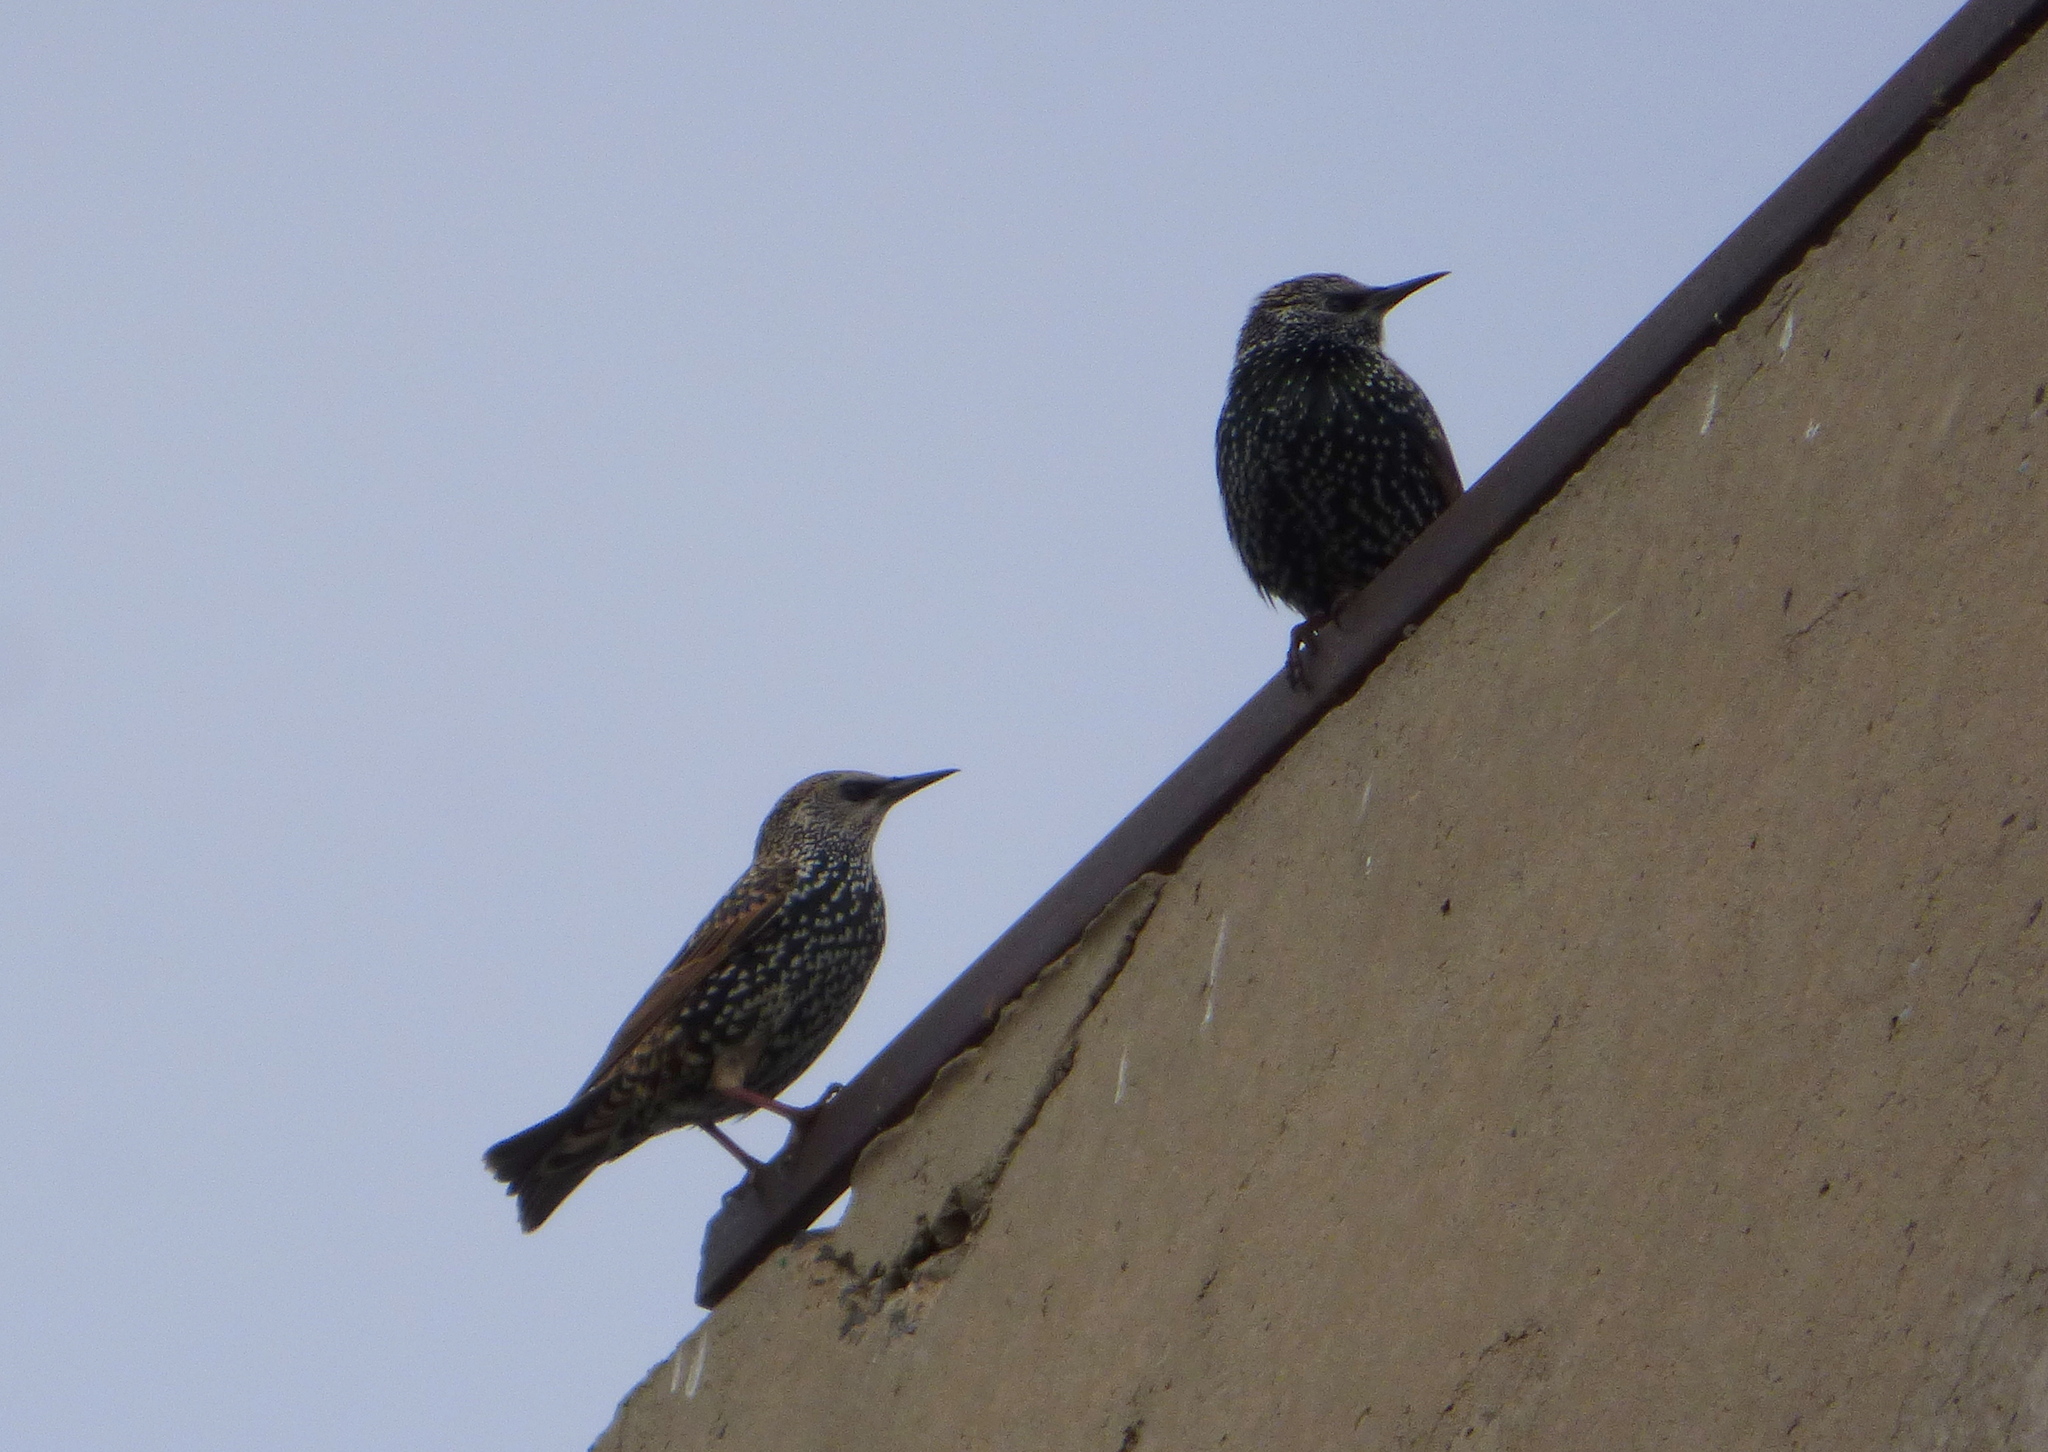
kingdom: Animalia
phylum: Chordata
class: Aves
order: Passeriformes
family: Sturnidae
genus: Sturnus
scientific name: Sturnus vulgaris
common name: Common starling
